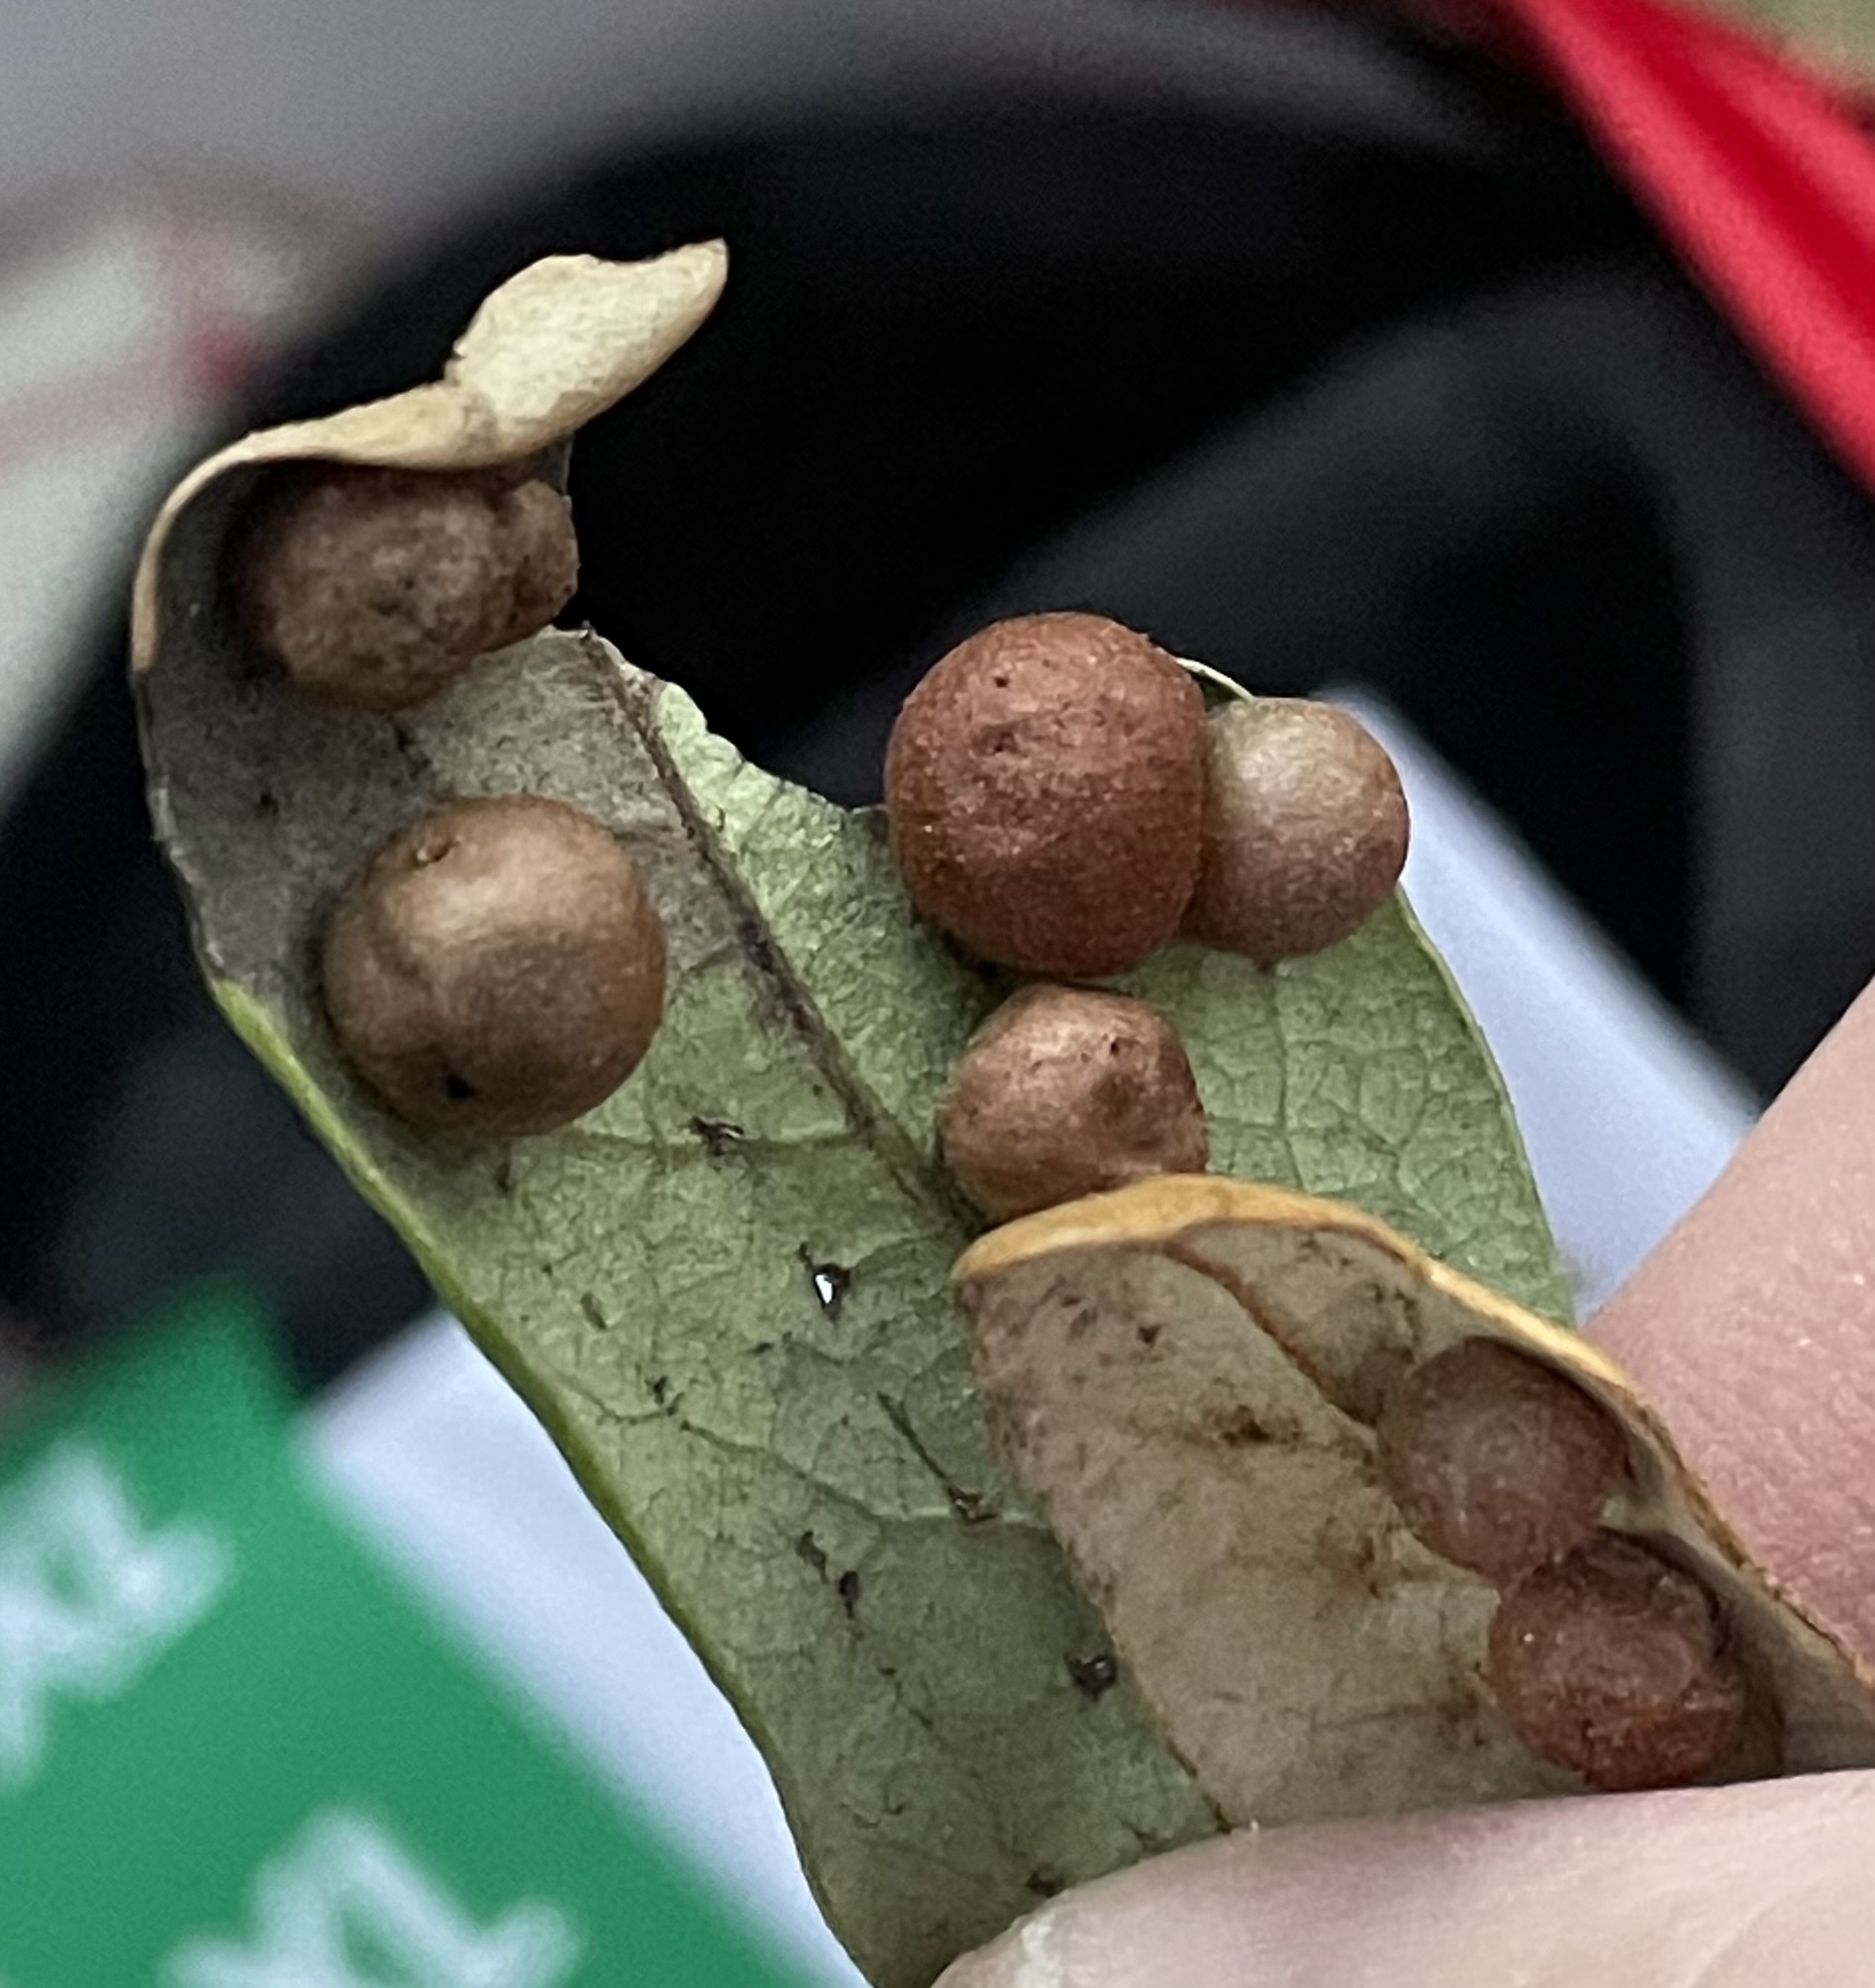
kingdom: Animalia
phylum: Arthropoda
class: Insecta
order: Hymenoptera
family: Cynipidae
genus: Belonocnema
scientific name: Belonocnema kinseyi
